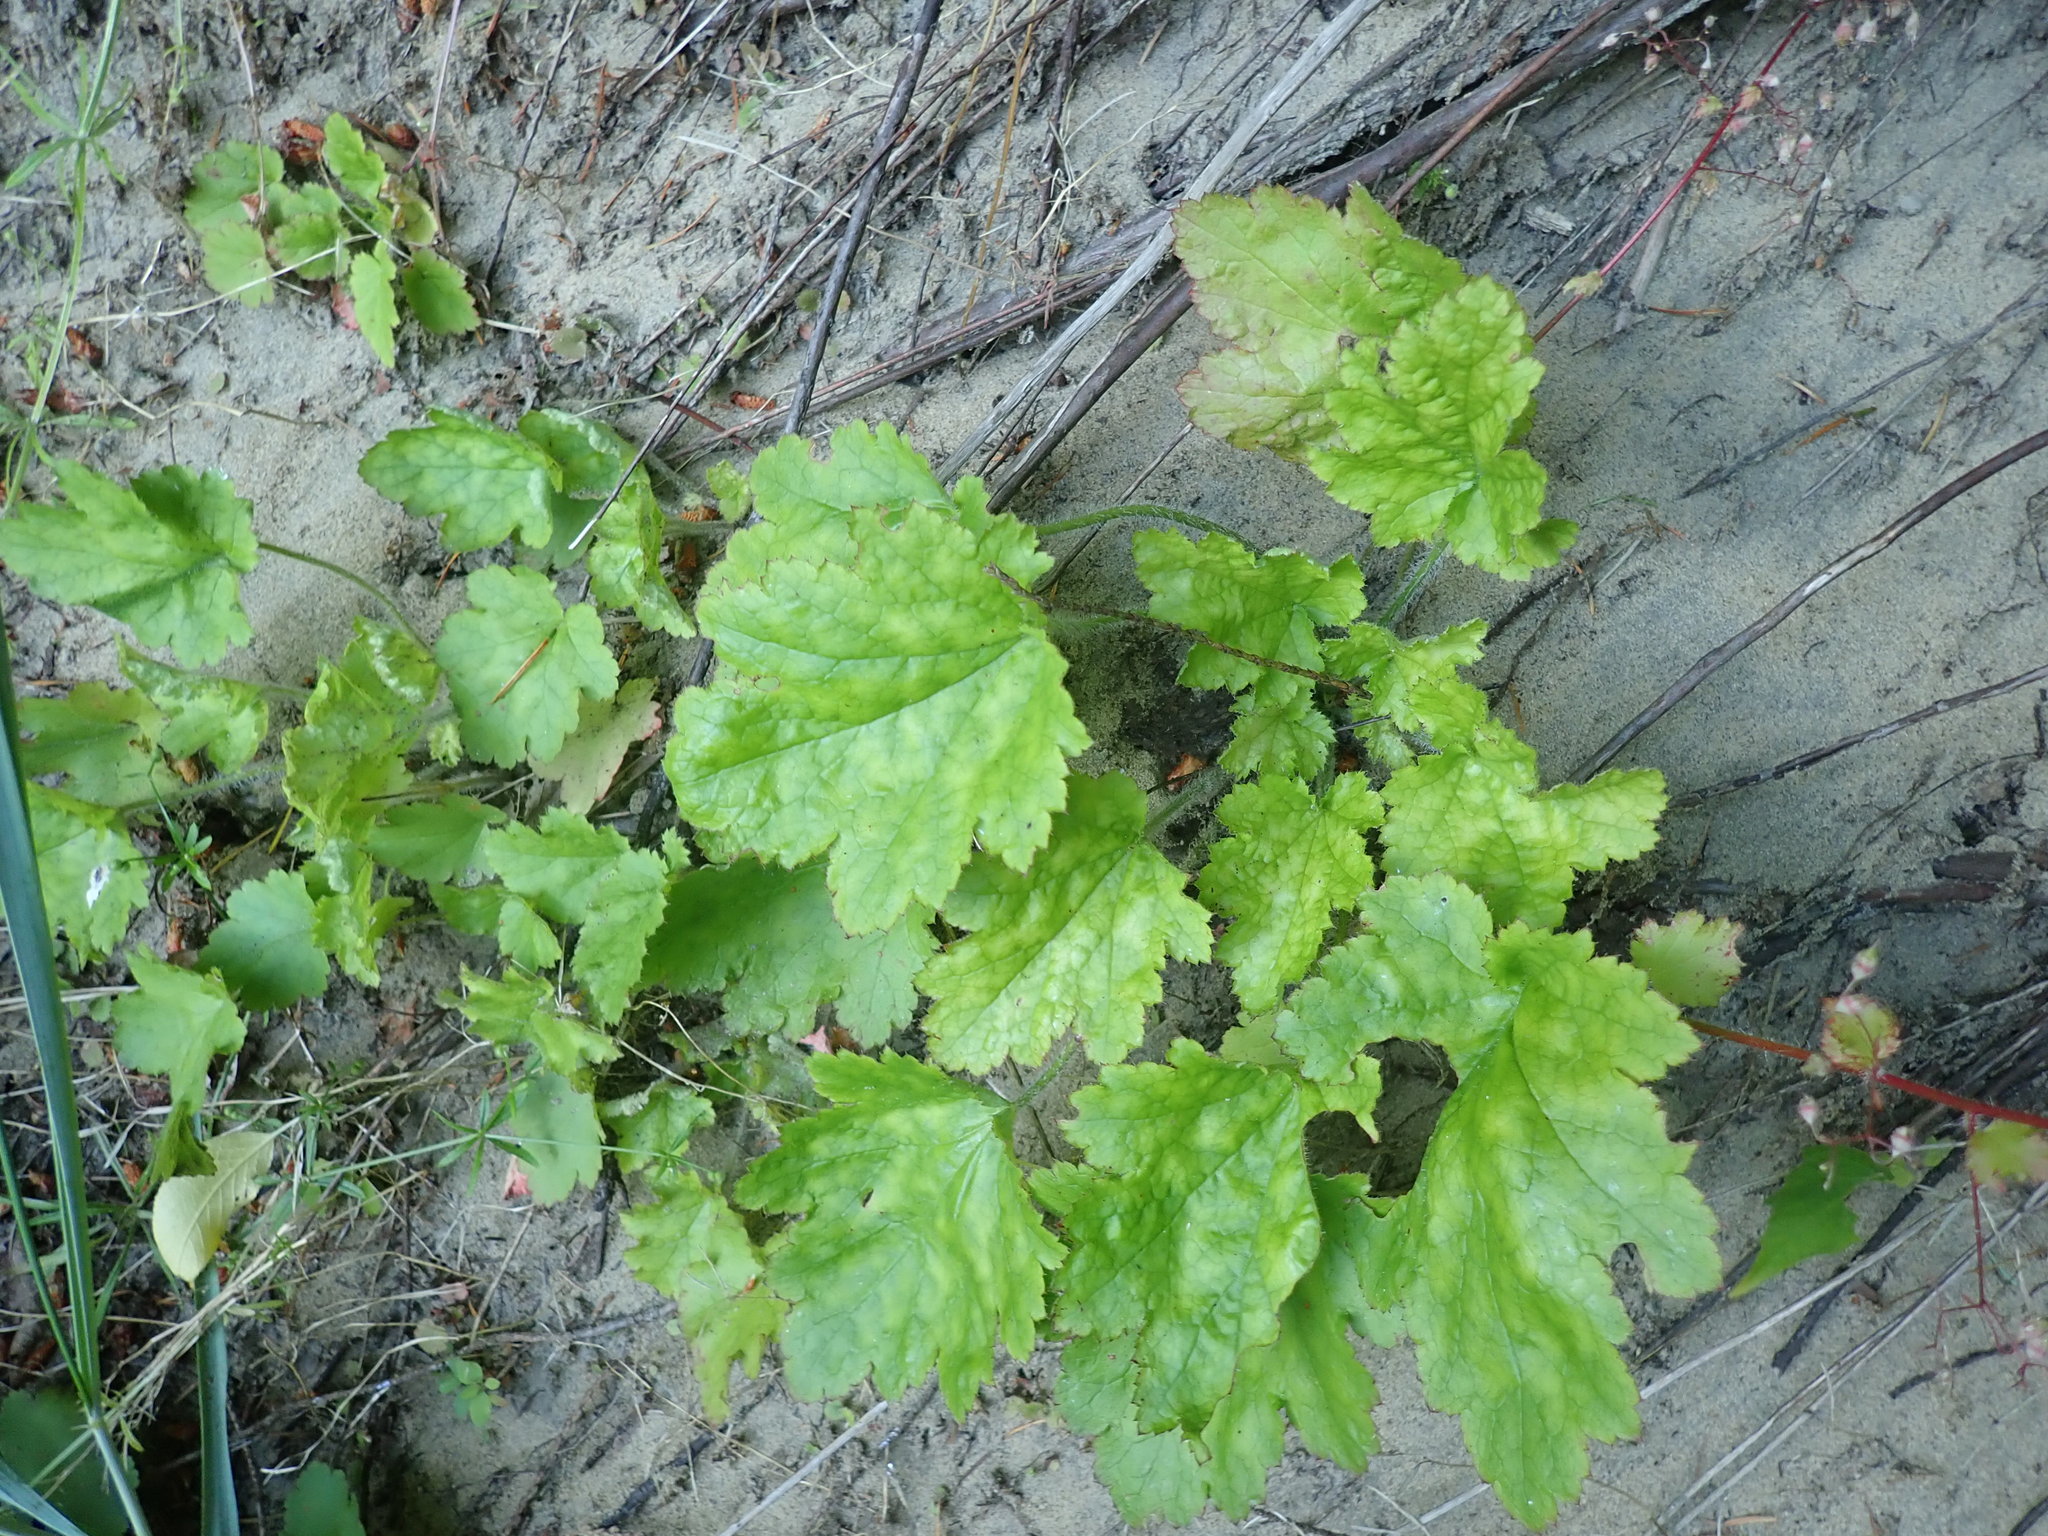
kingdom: Plantae
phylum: Tracheophyta
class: Magnoliopsida
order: Saxifragales
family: Saxifragaceae
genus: Heuchera
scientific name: Heuchera micrantha
